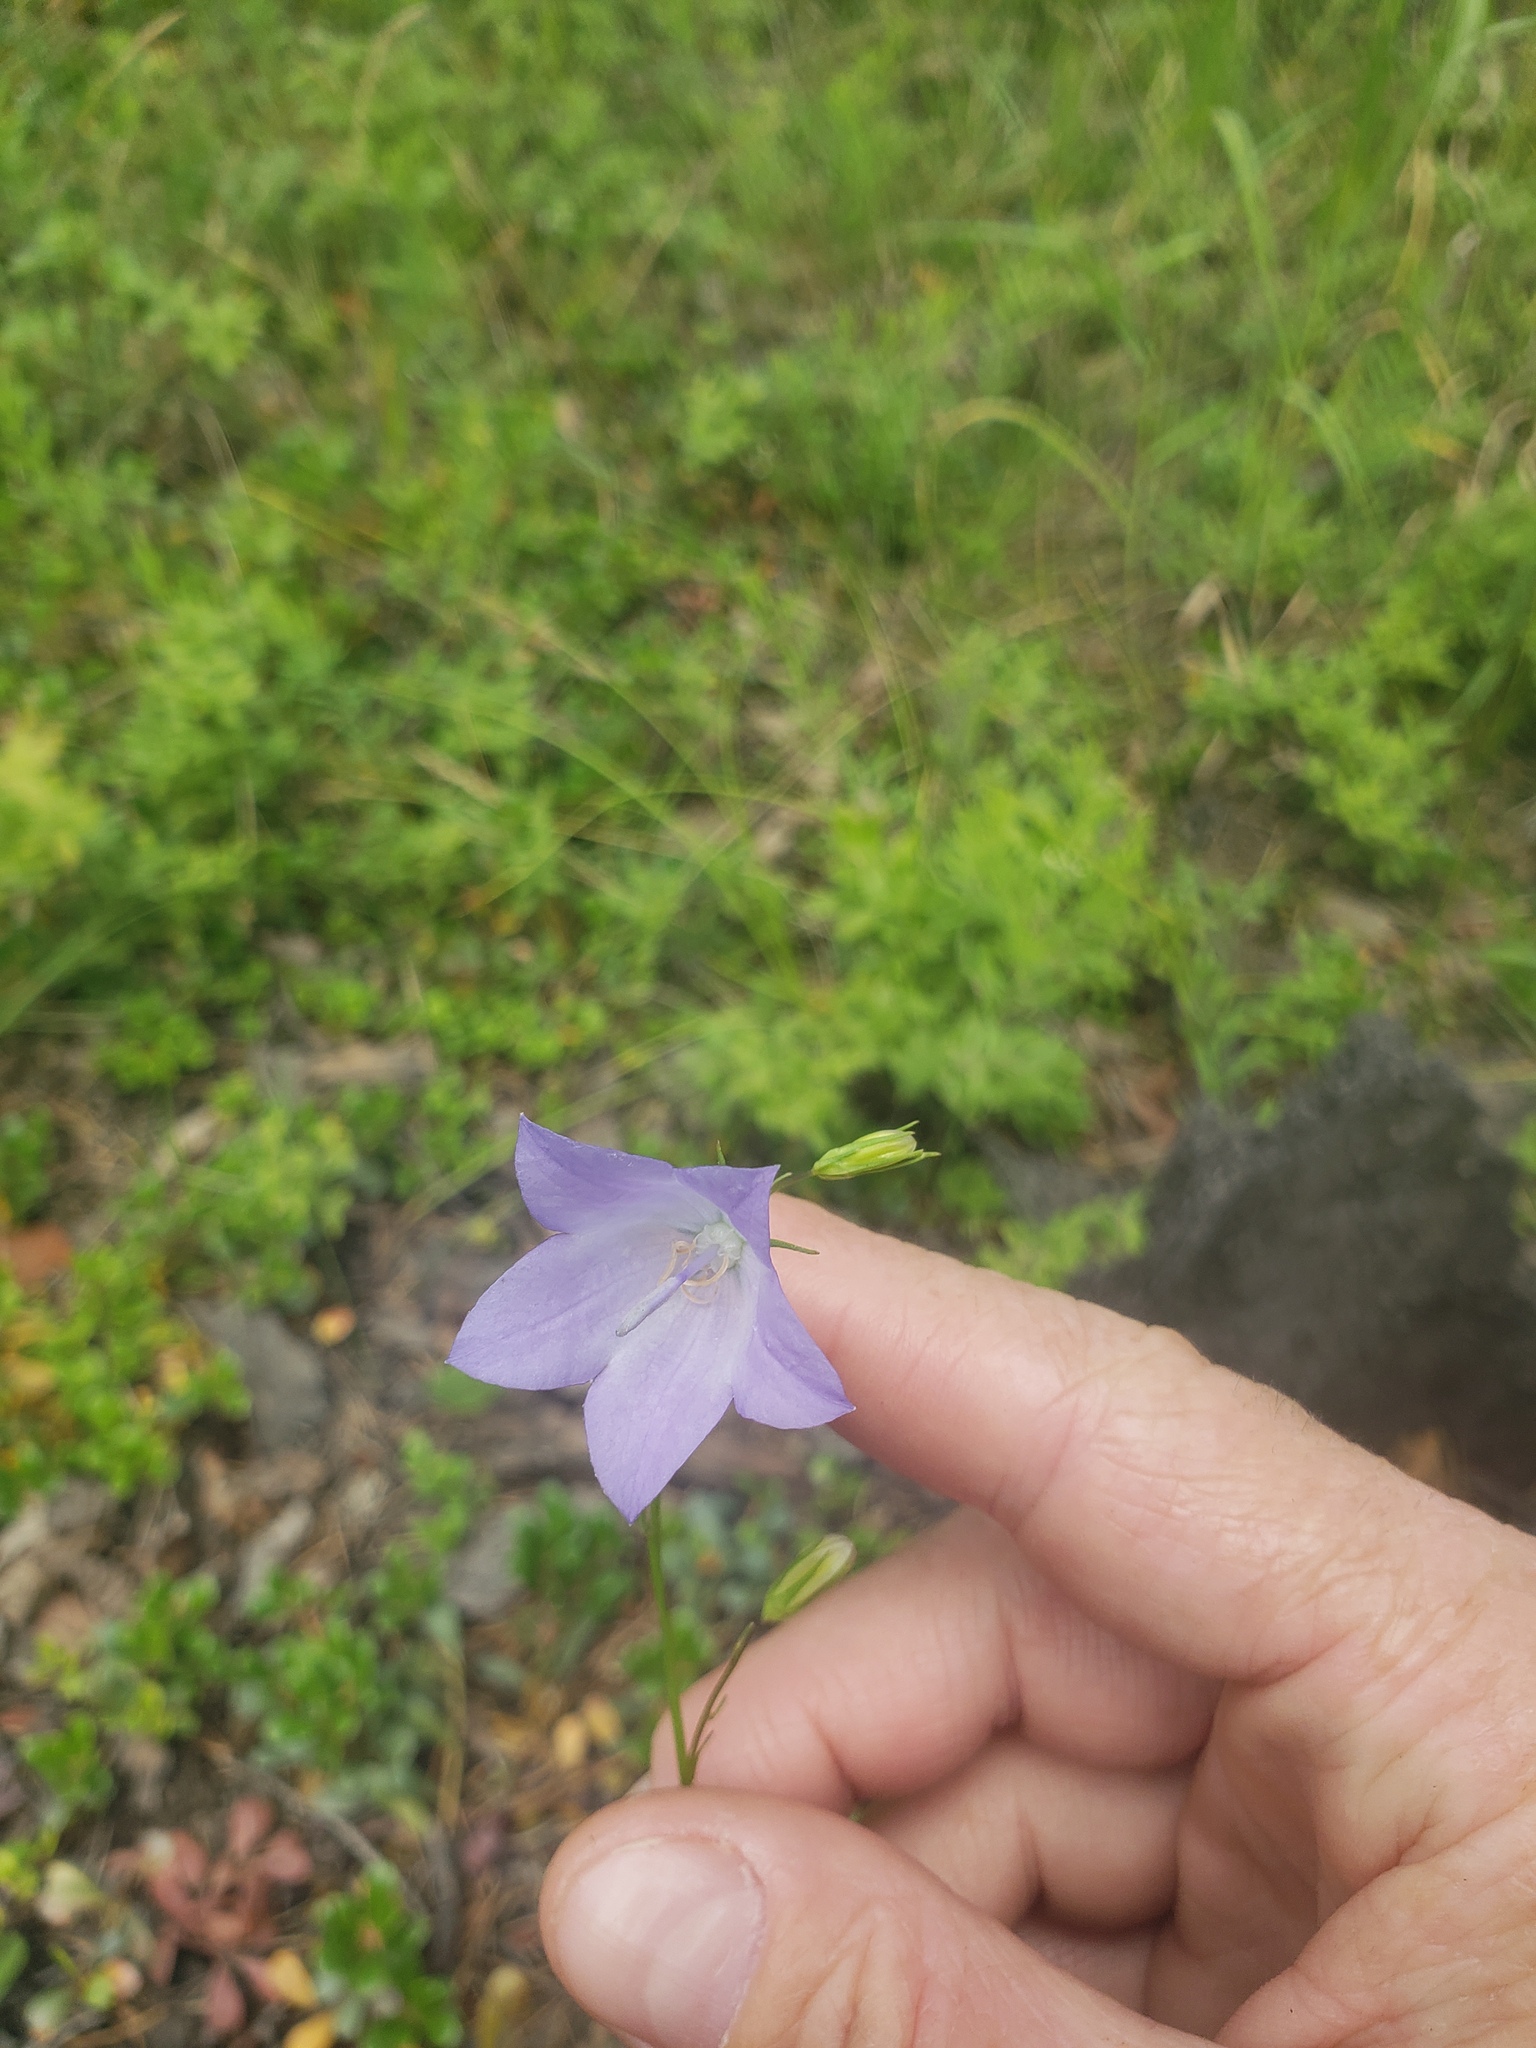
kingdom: Plantae
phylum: Tracheophyta
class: Magnoliopsida
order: Asterales
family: Campanulaceae
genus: Campanula
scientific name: Campanula alaskana
